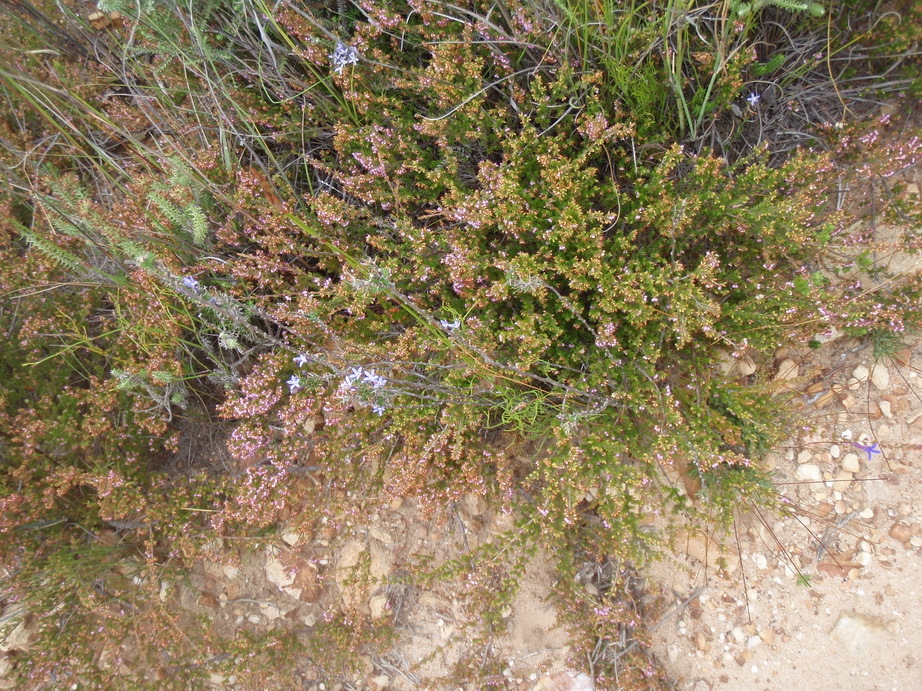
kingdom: Plantae
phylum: Tracheophyta
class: Magnoliopsida
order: Ericales
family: Ericaceae
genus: Erica
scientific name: Erica bolusanthus
